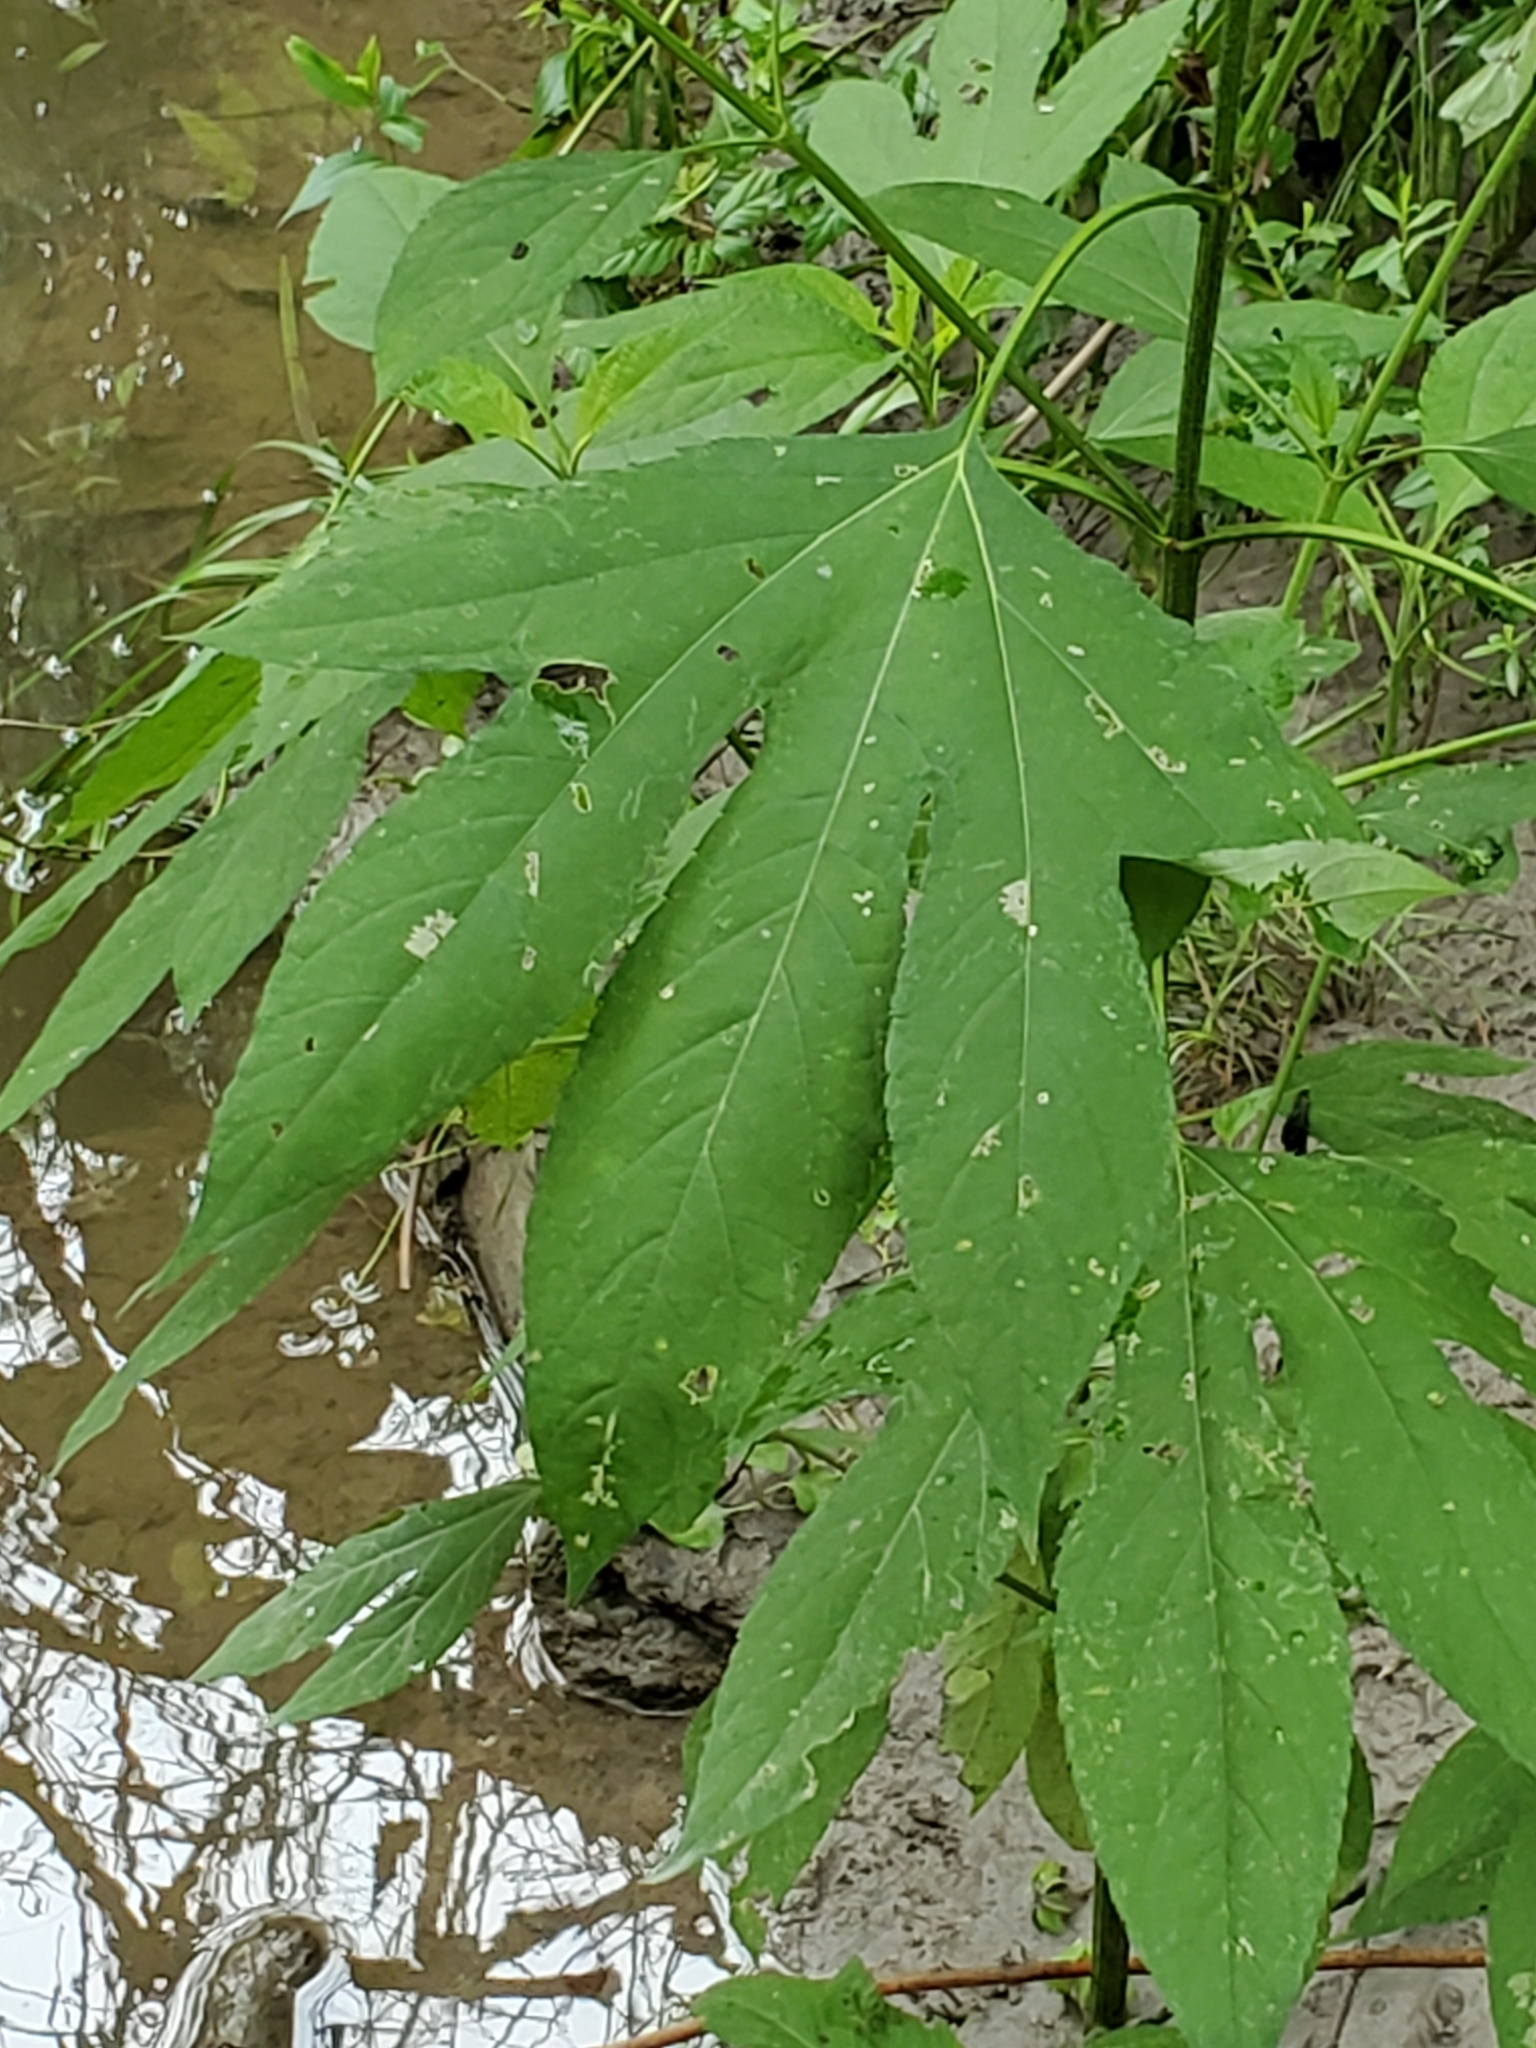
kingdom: Plantae
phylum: Tracheophyta
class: Magnoliopsida
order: Asterales
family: Asteraceae
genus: Ambrosia
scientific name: Ambrosia trifida
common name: Giant ragweed
